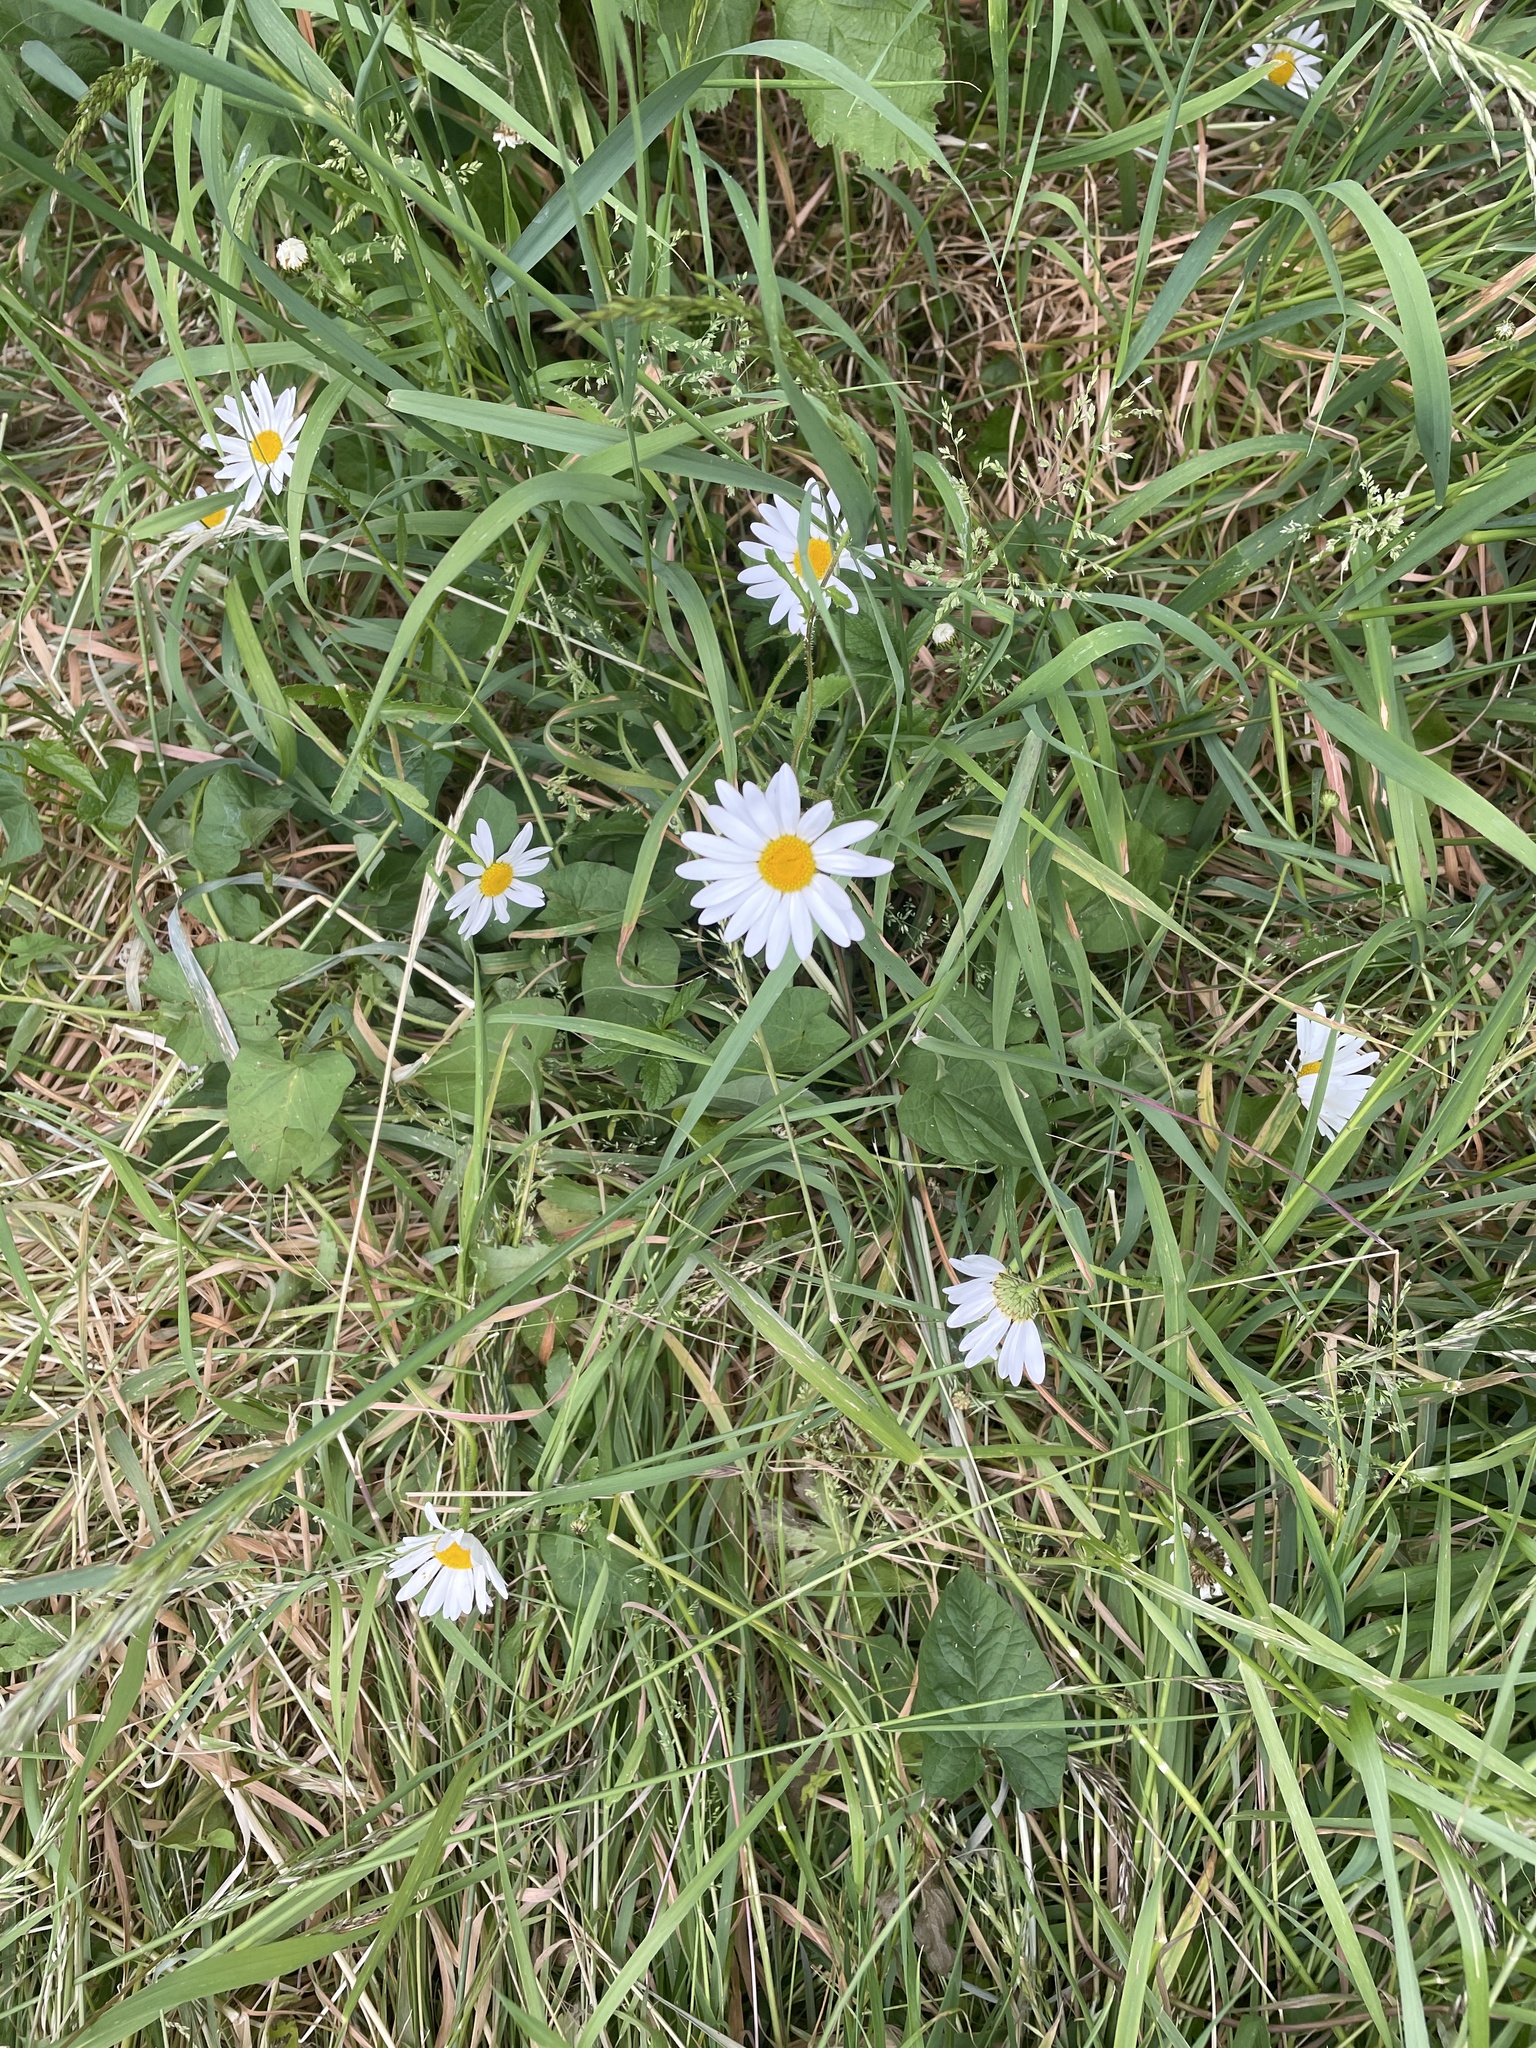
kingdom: Plantae
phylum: Tracheophyta
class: Magnoliopsida
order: Asterales
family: Asteraceae
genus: Leucanthemum
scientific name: Leucanthemum vulgare
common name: Oxeye daisy
